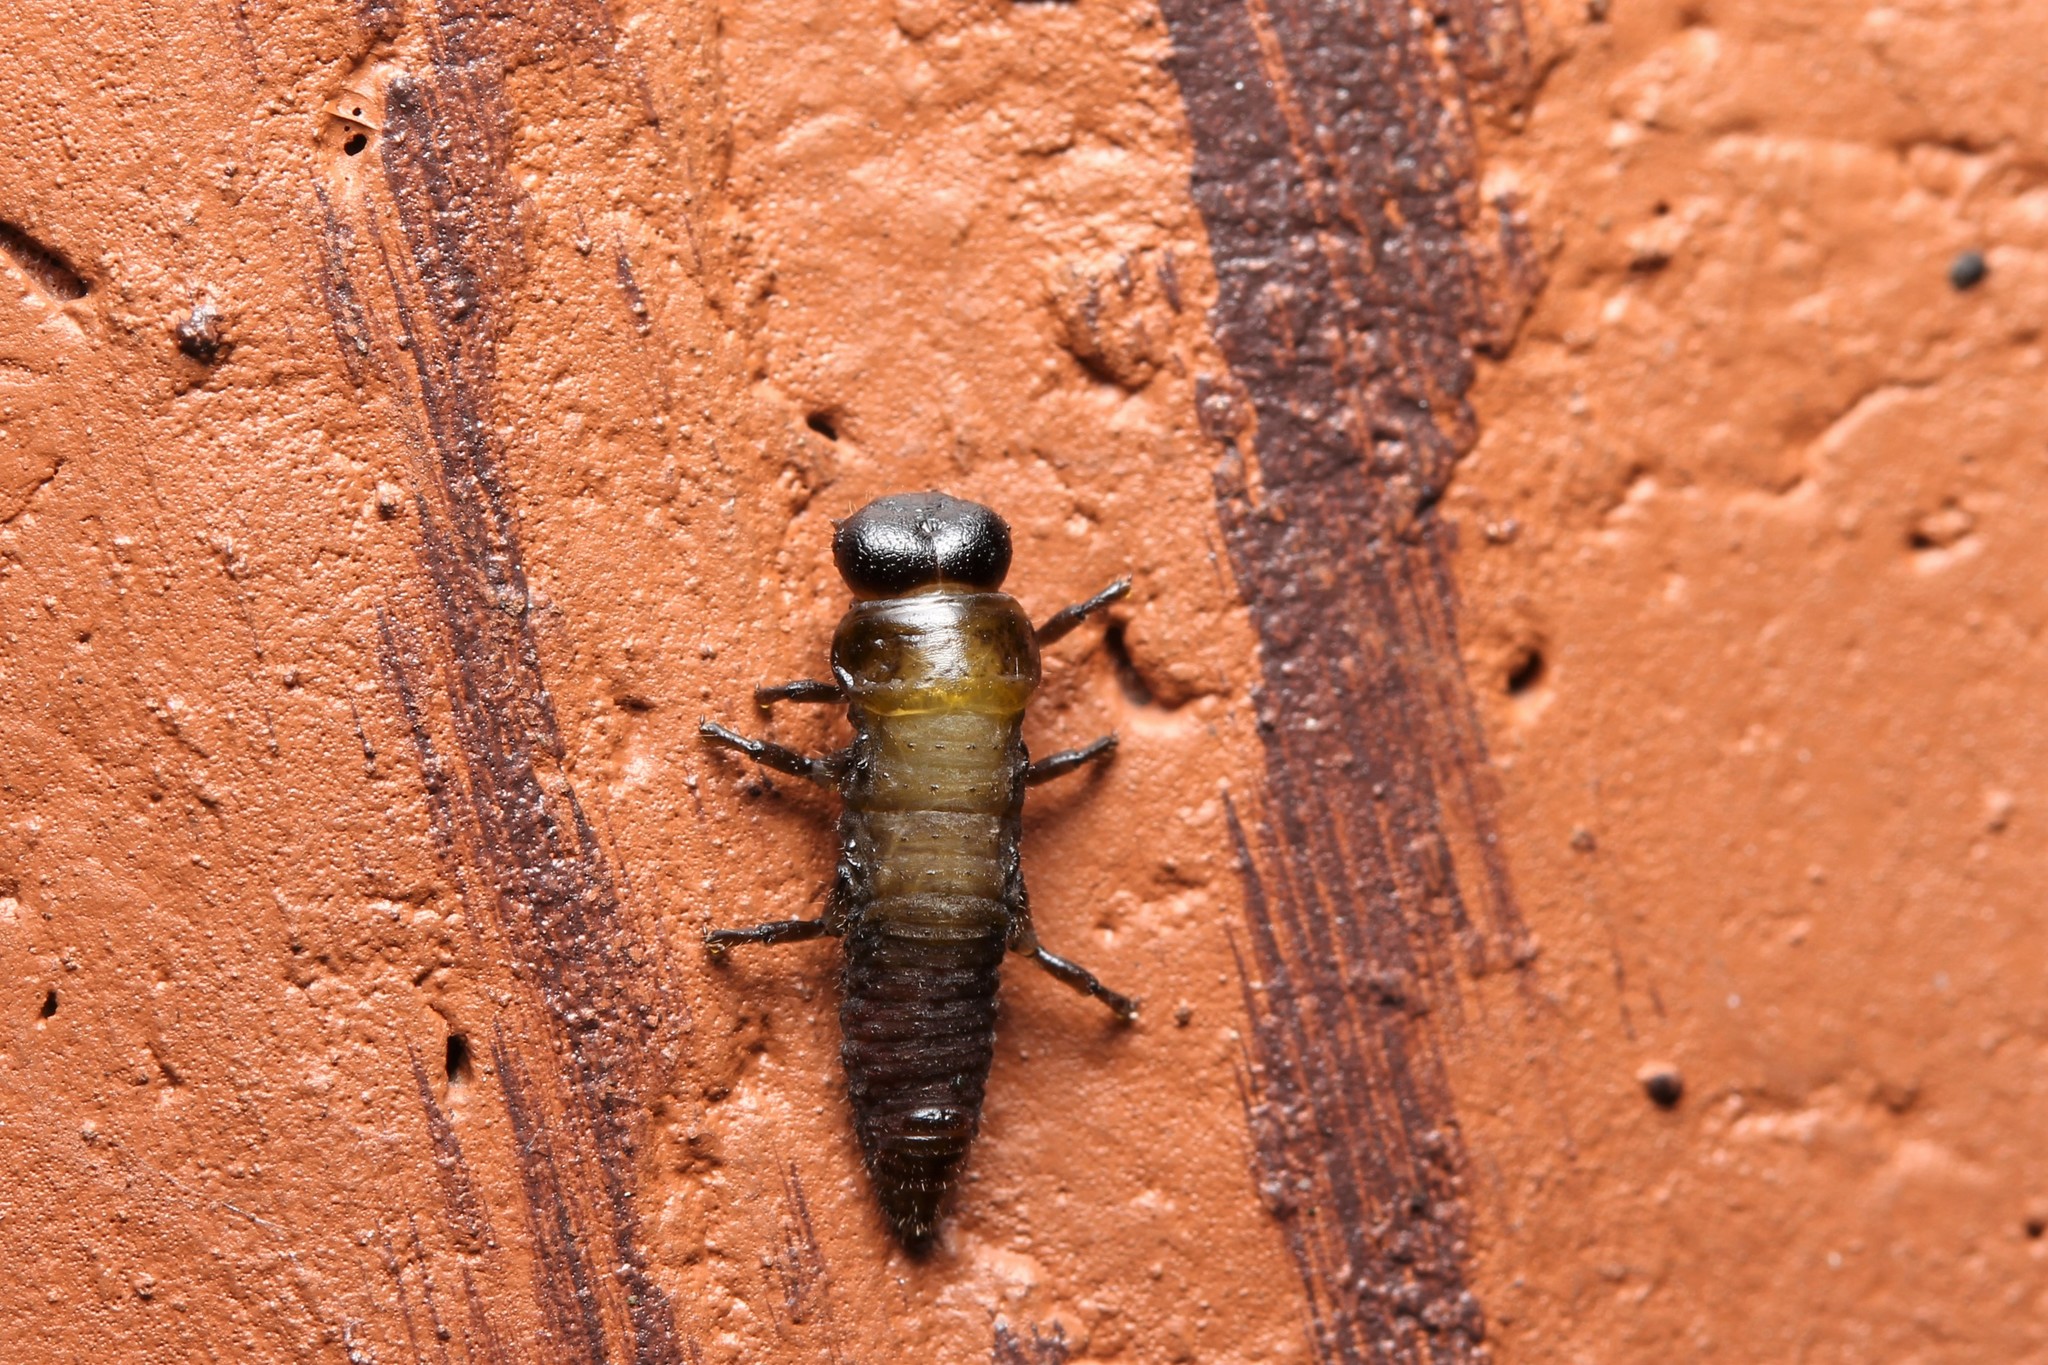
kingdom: Animalia
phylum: Arthropoda
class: Insecta
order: Coleoptera
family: Chrysomelidae
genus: Trachymela
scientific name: Trachymela sloanei
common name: Australian tortoise beetle
